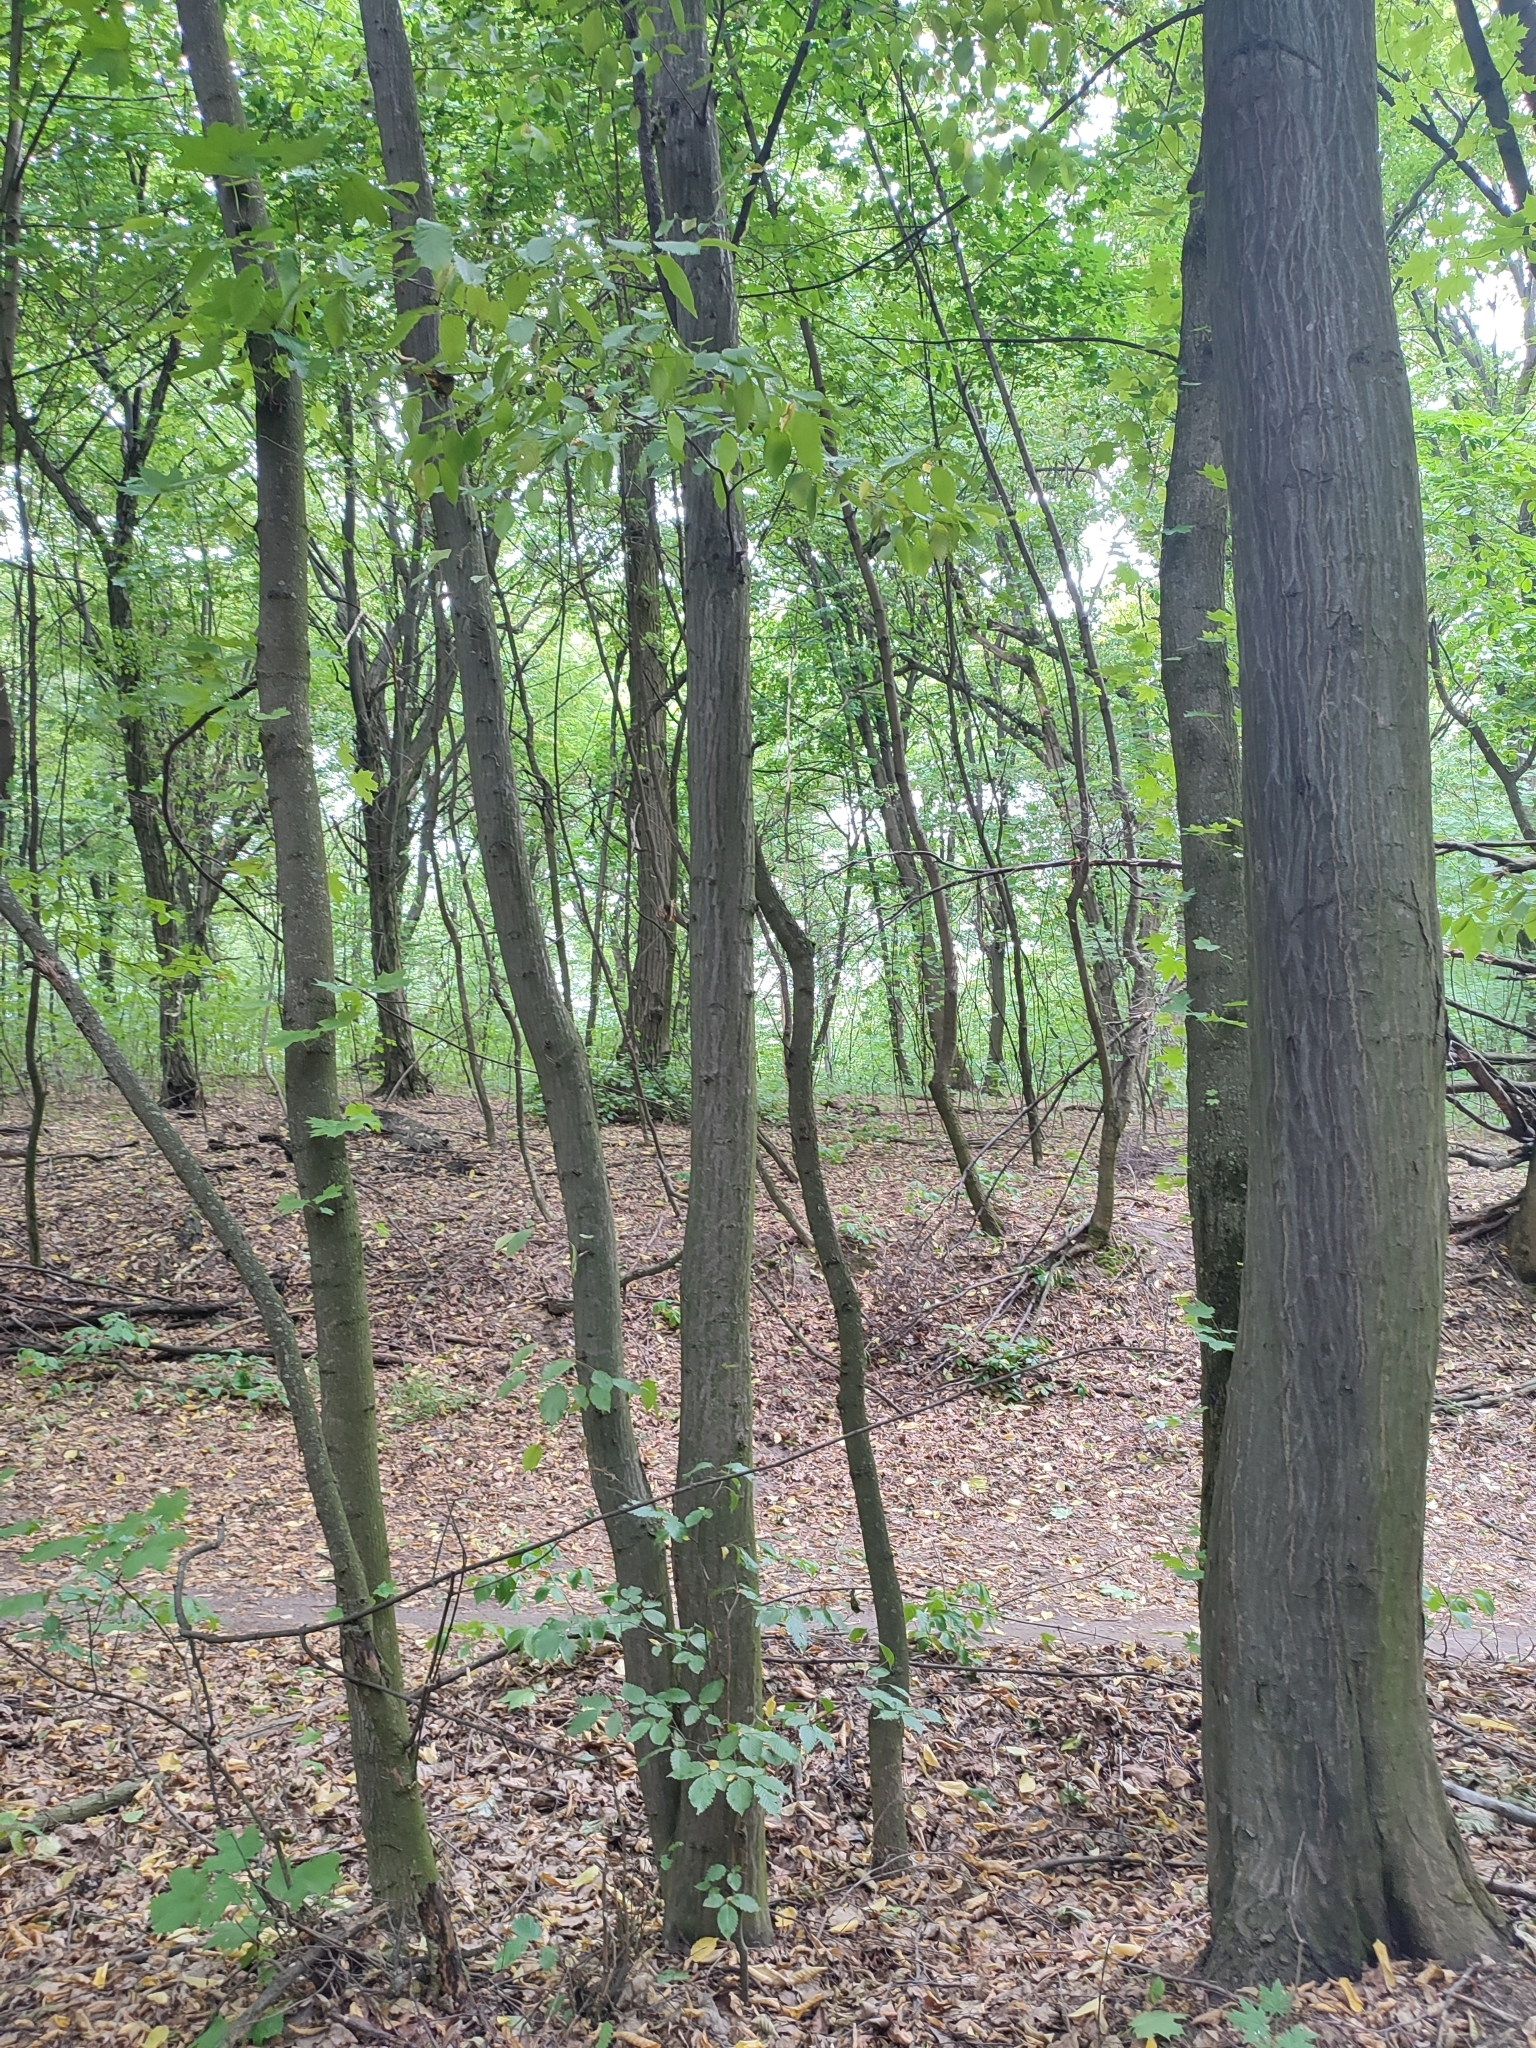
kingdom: Plantae
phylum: Tracheophyta
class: Magnoliopsida
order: Fagales
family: Betulaceae
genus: Carpinus
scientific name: Carpinus betulus
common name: Hornbeam
